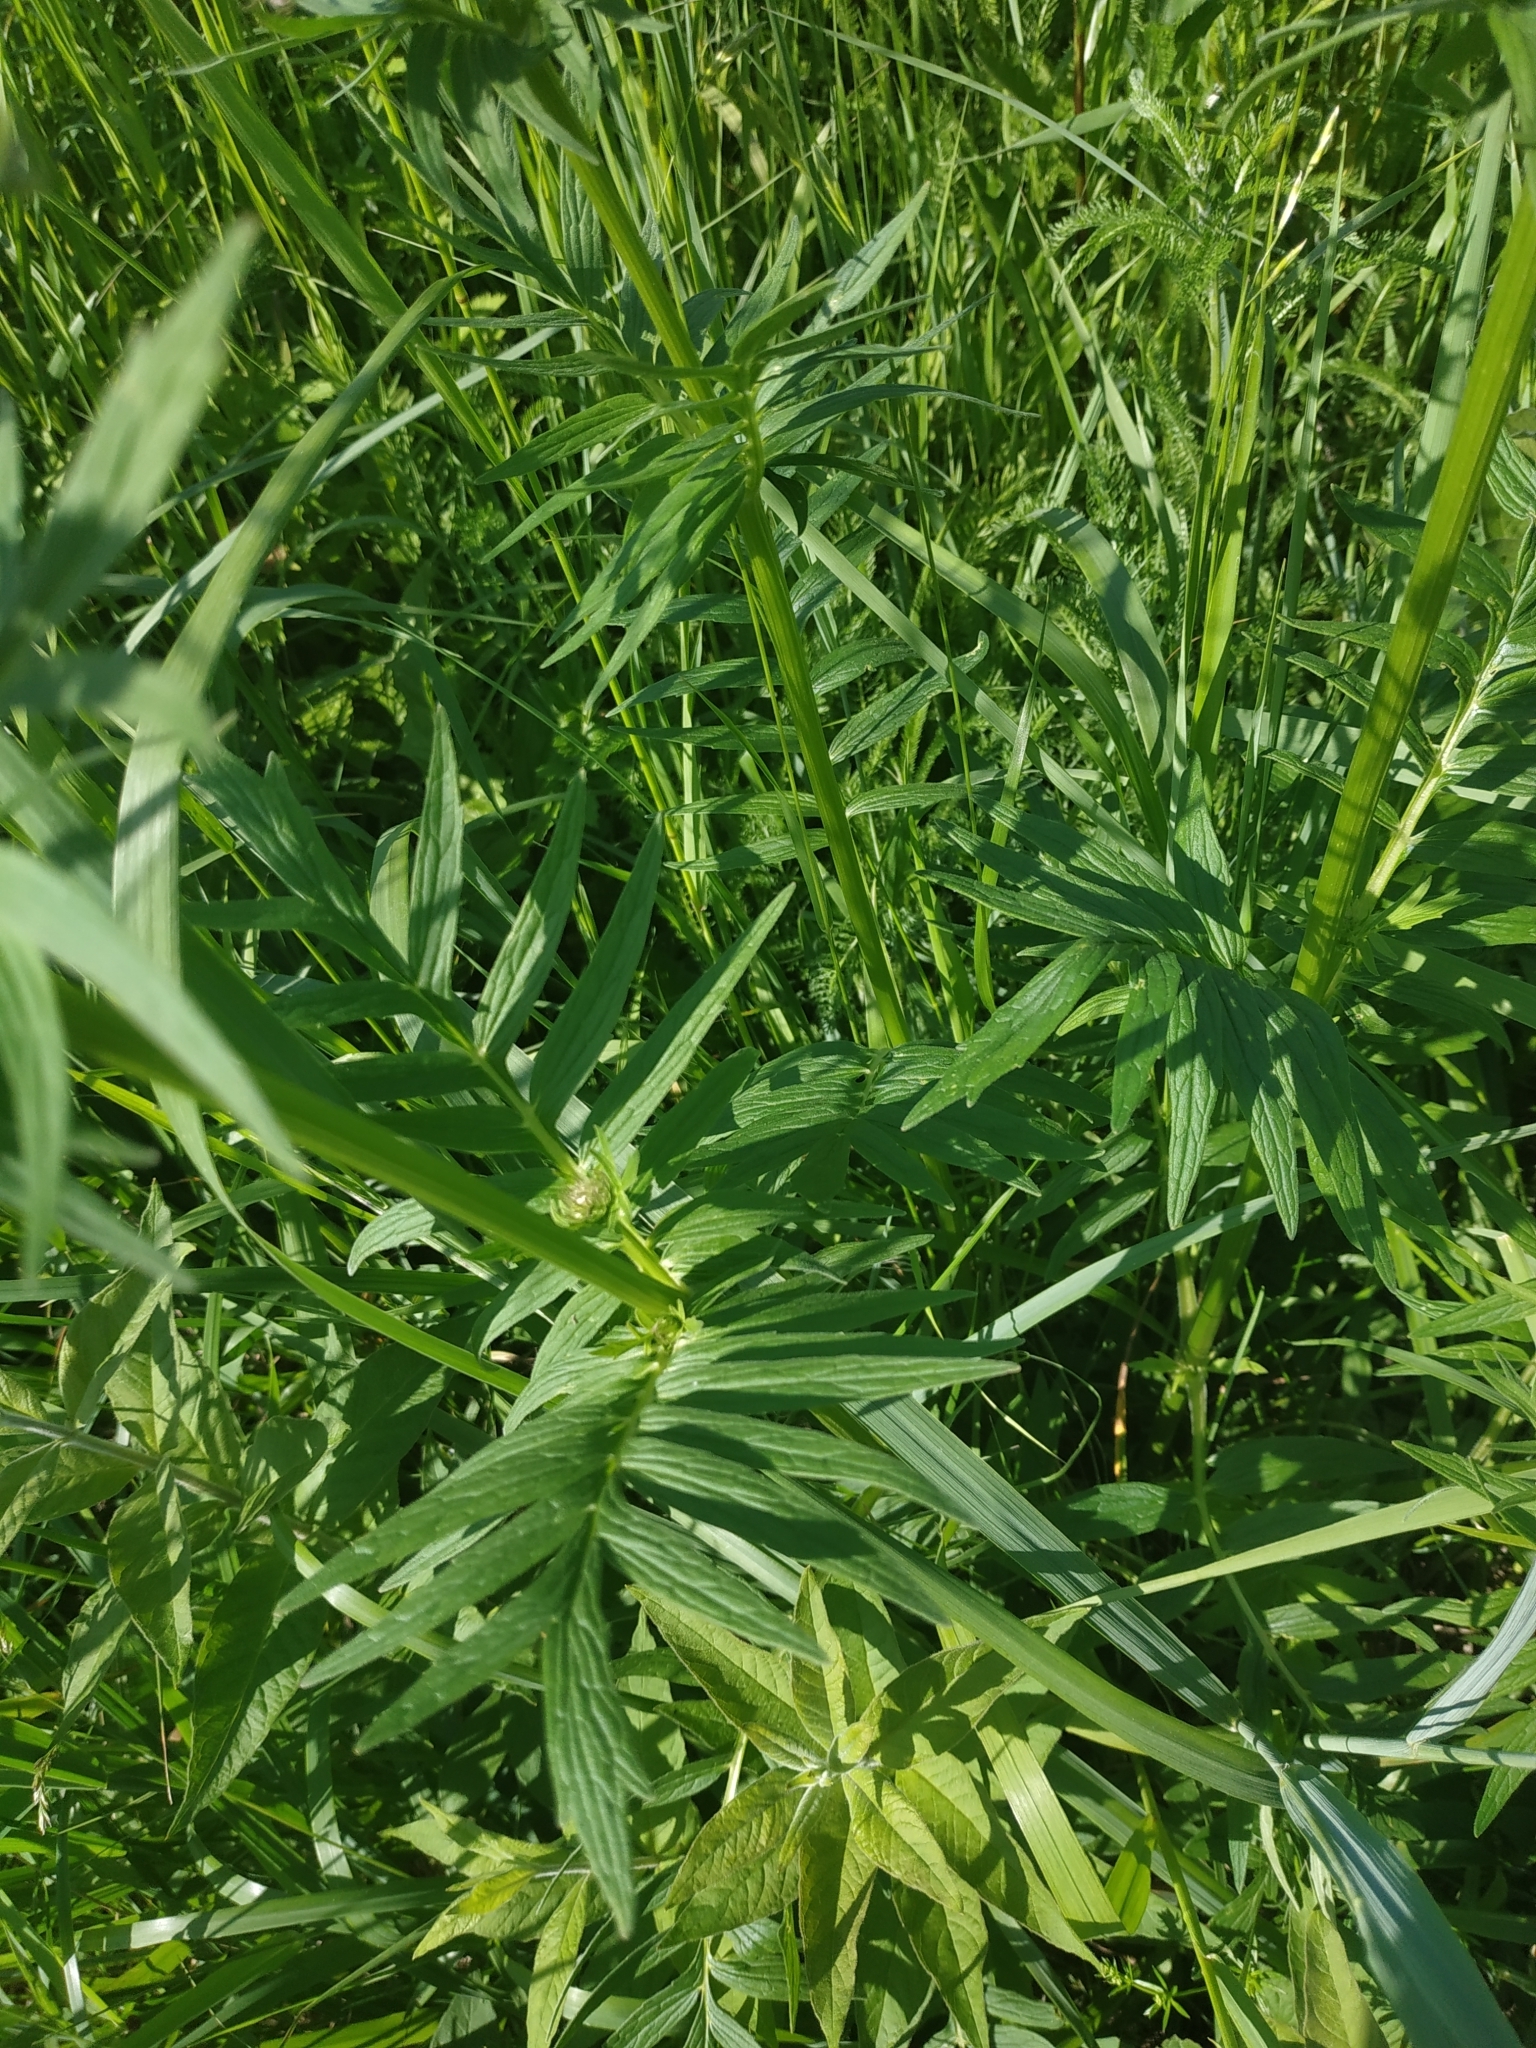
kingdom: Plantae
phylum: Tracheophyta
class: Magnoliopsida
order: Dipsacales
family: Caprifoliaceae
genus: Valeriana
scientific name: Valeriana officinalis
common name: Common valerian
